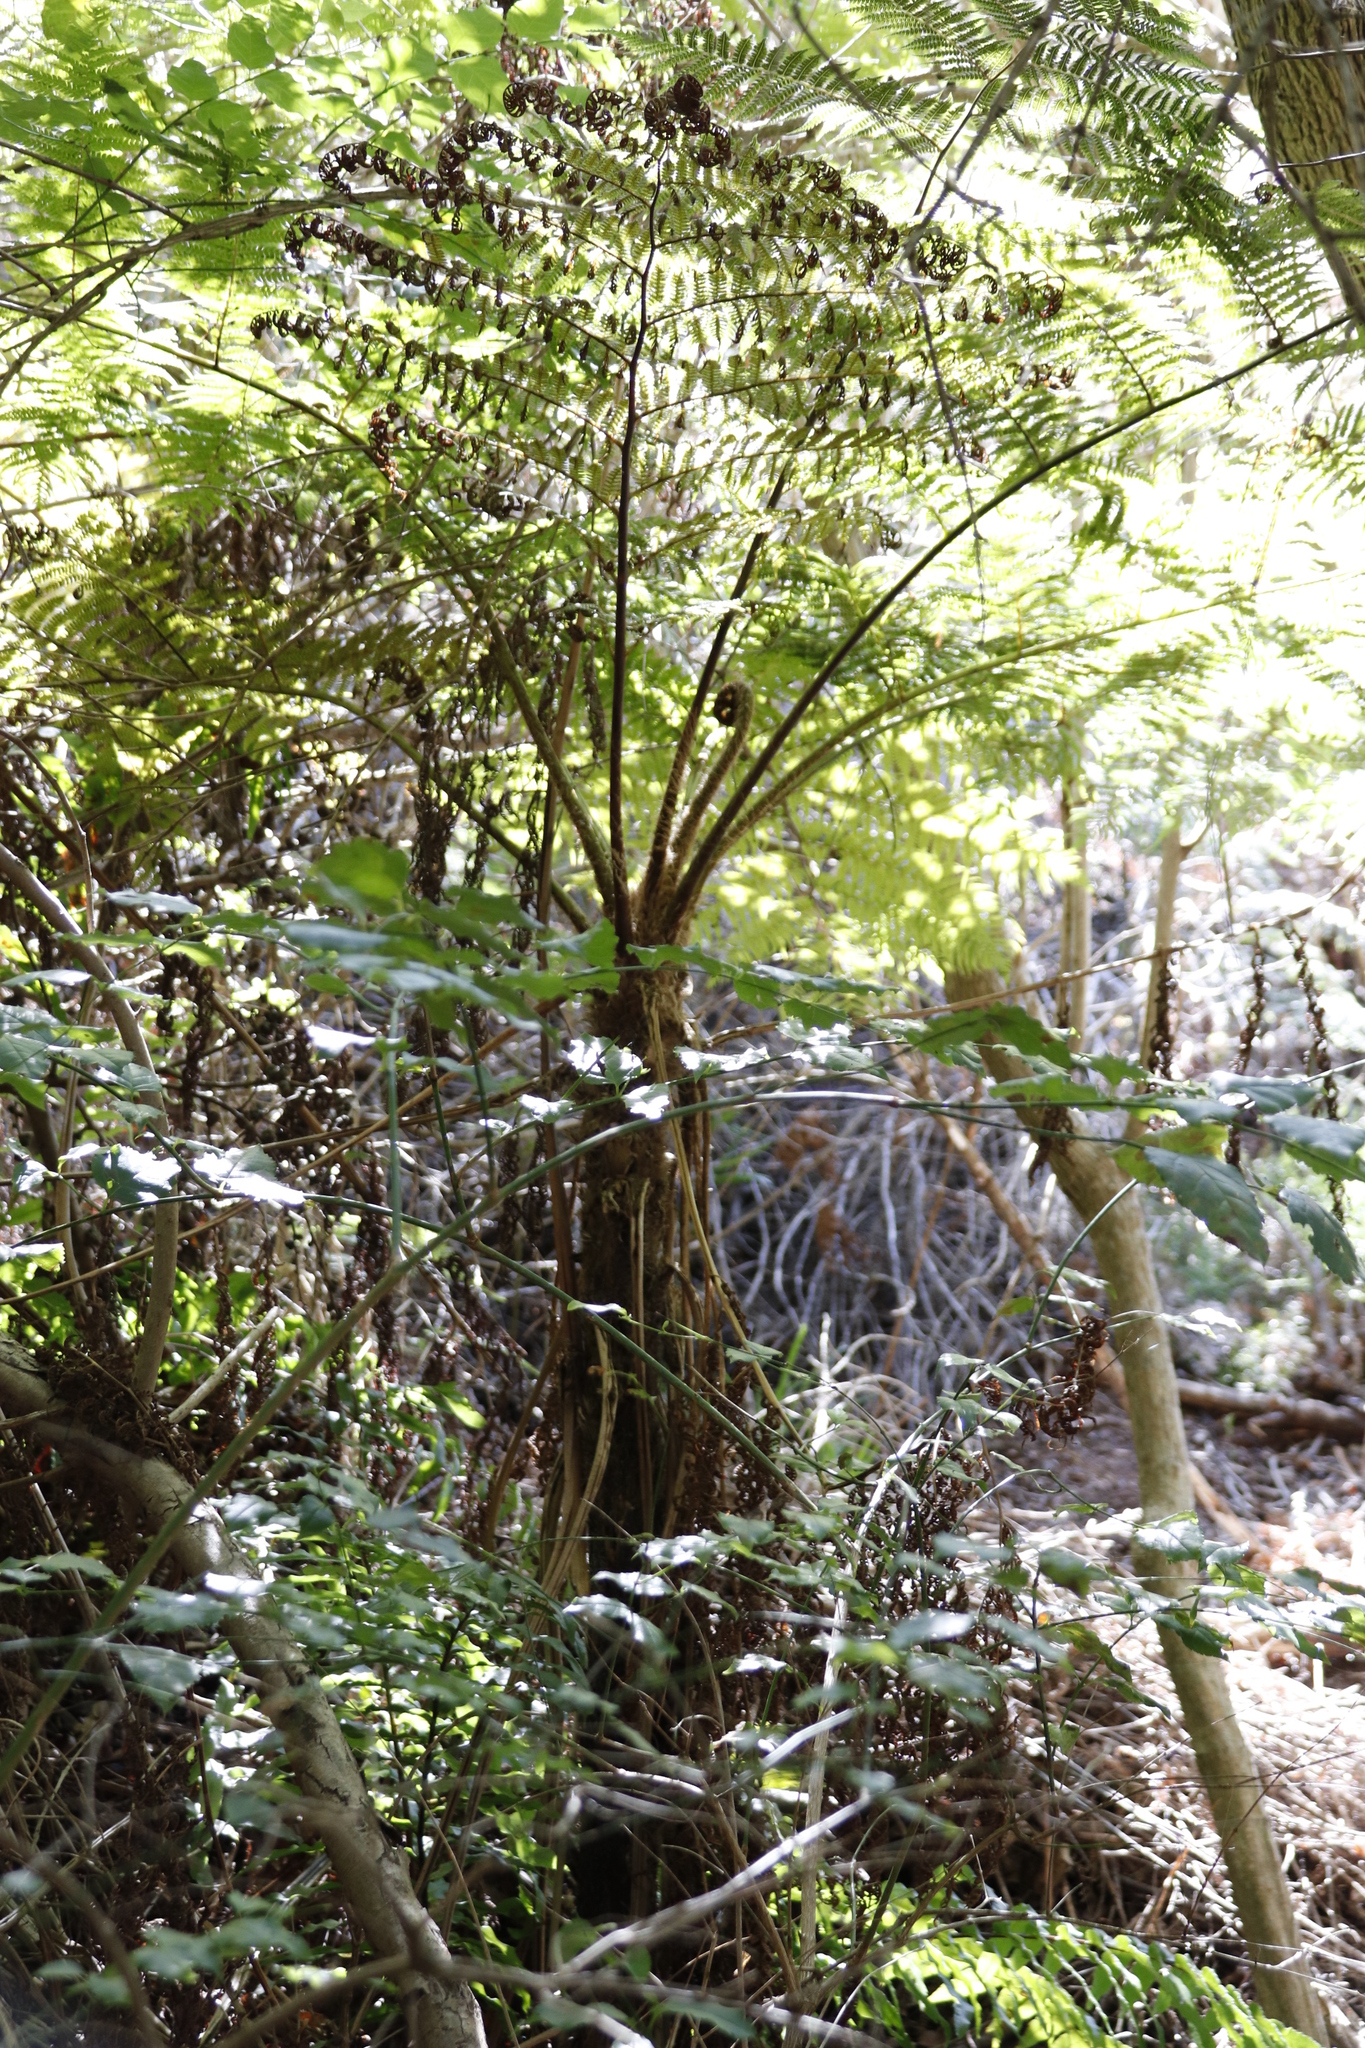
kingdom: Plantae
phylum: Tracheophyta
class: Polypodiopsida
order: Cyatheales
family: Cyatheaceae
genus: Sphaeropteris
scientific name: Sphaeropteris cooperi
